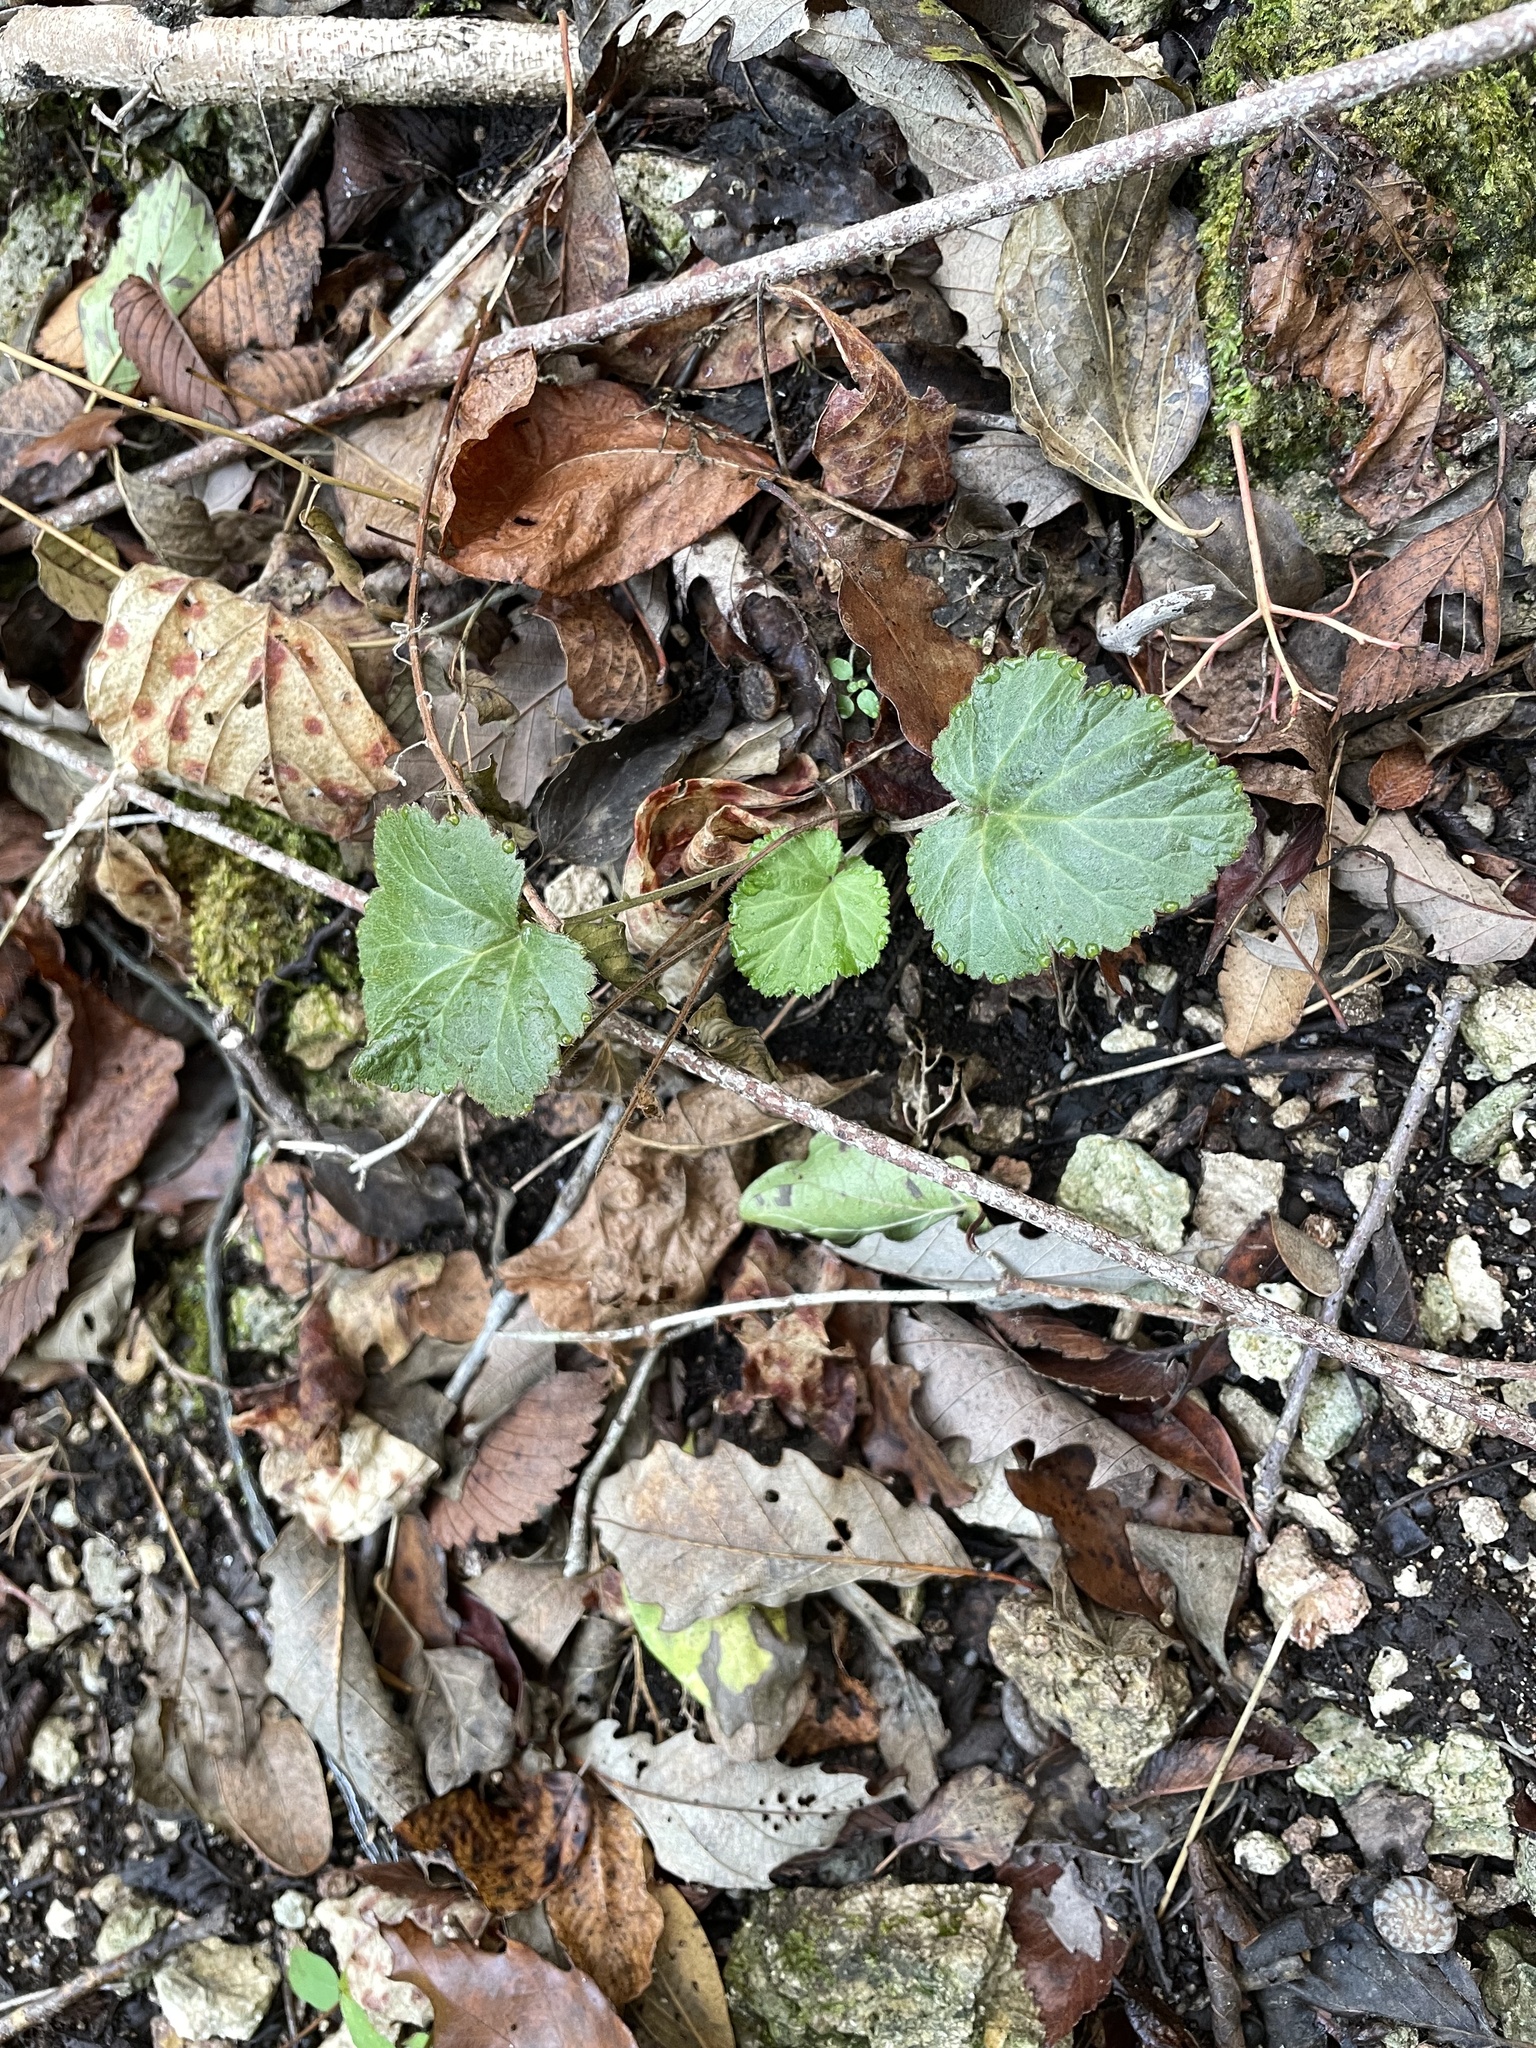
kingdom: Plantae
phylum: Tracheophyta
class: Magnoliopsida
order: Rosales
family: Rosaceae
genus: Geum
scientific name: Geum canadense
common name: White avens
